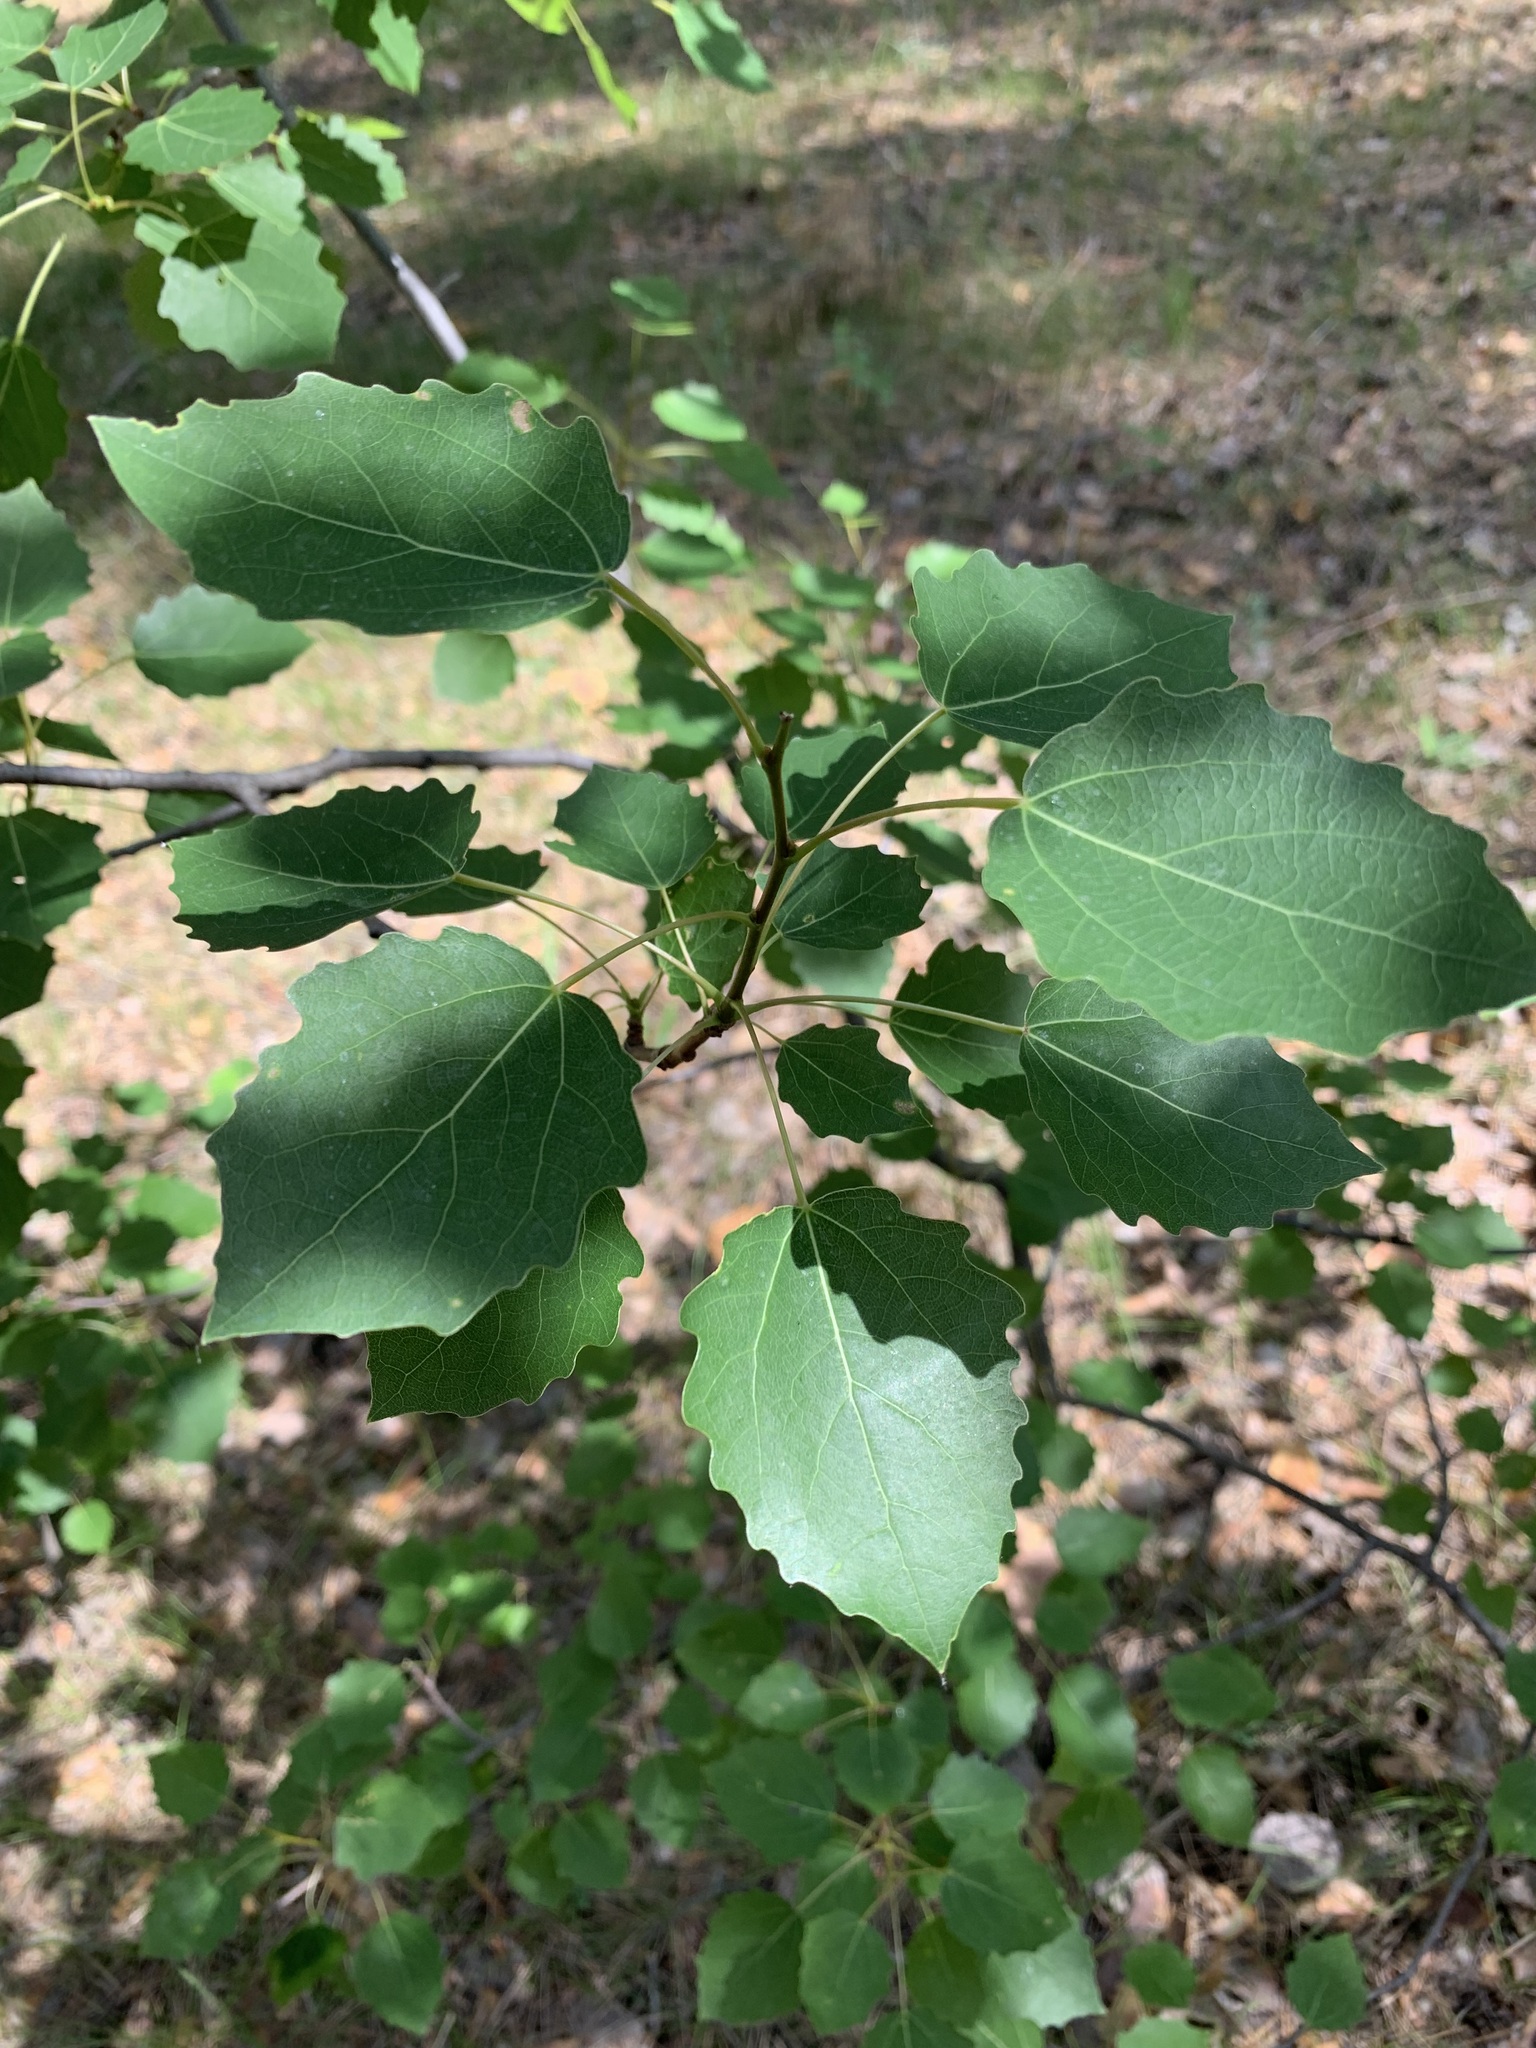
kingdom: Plantae
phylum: Tracheophyta
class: Magnoliopsida
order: Malpighiales
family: Salicaceae
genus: Populus
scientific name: Populus tremula
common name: European aspen
